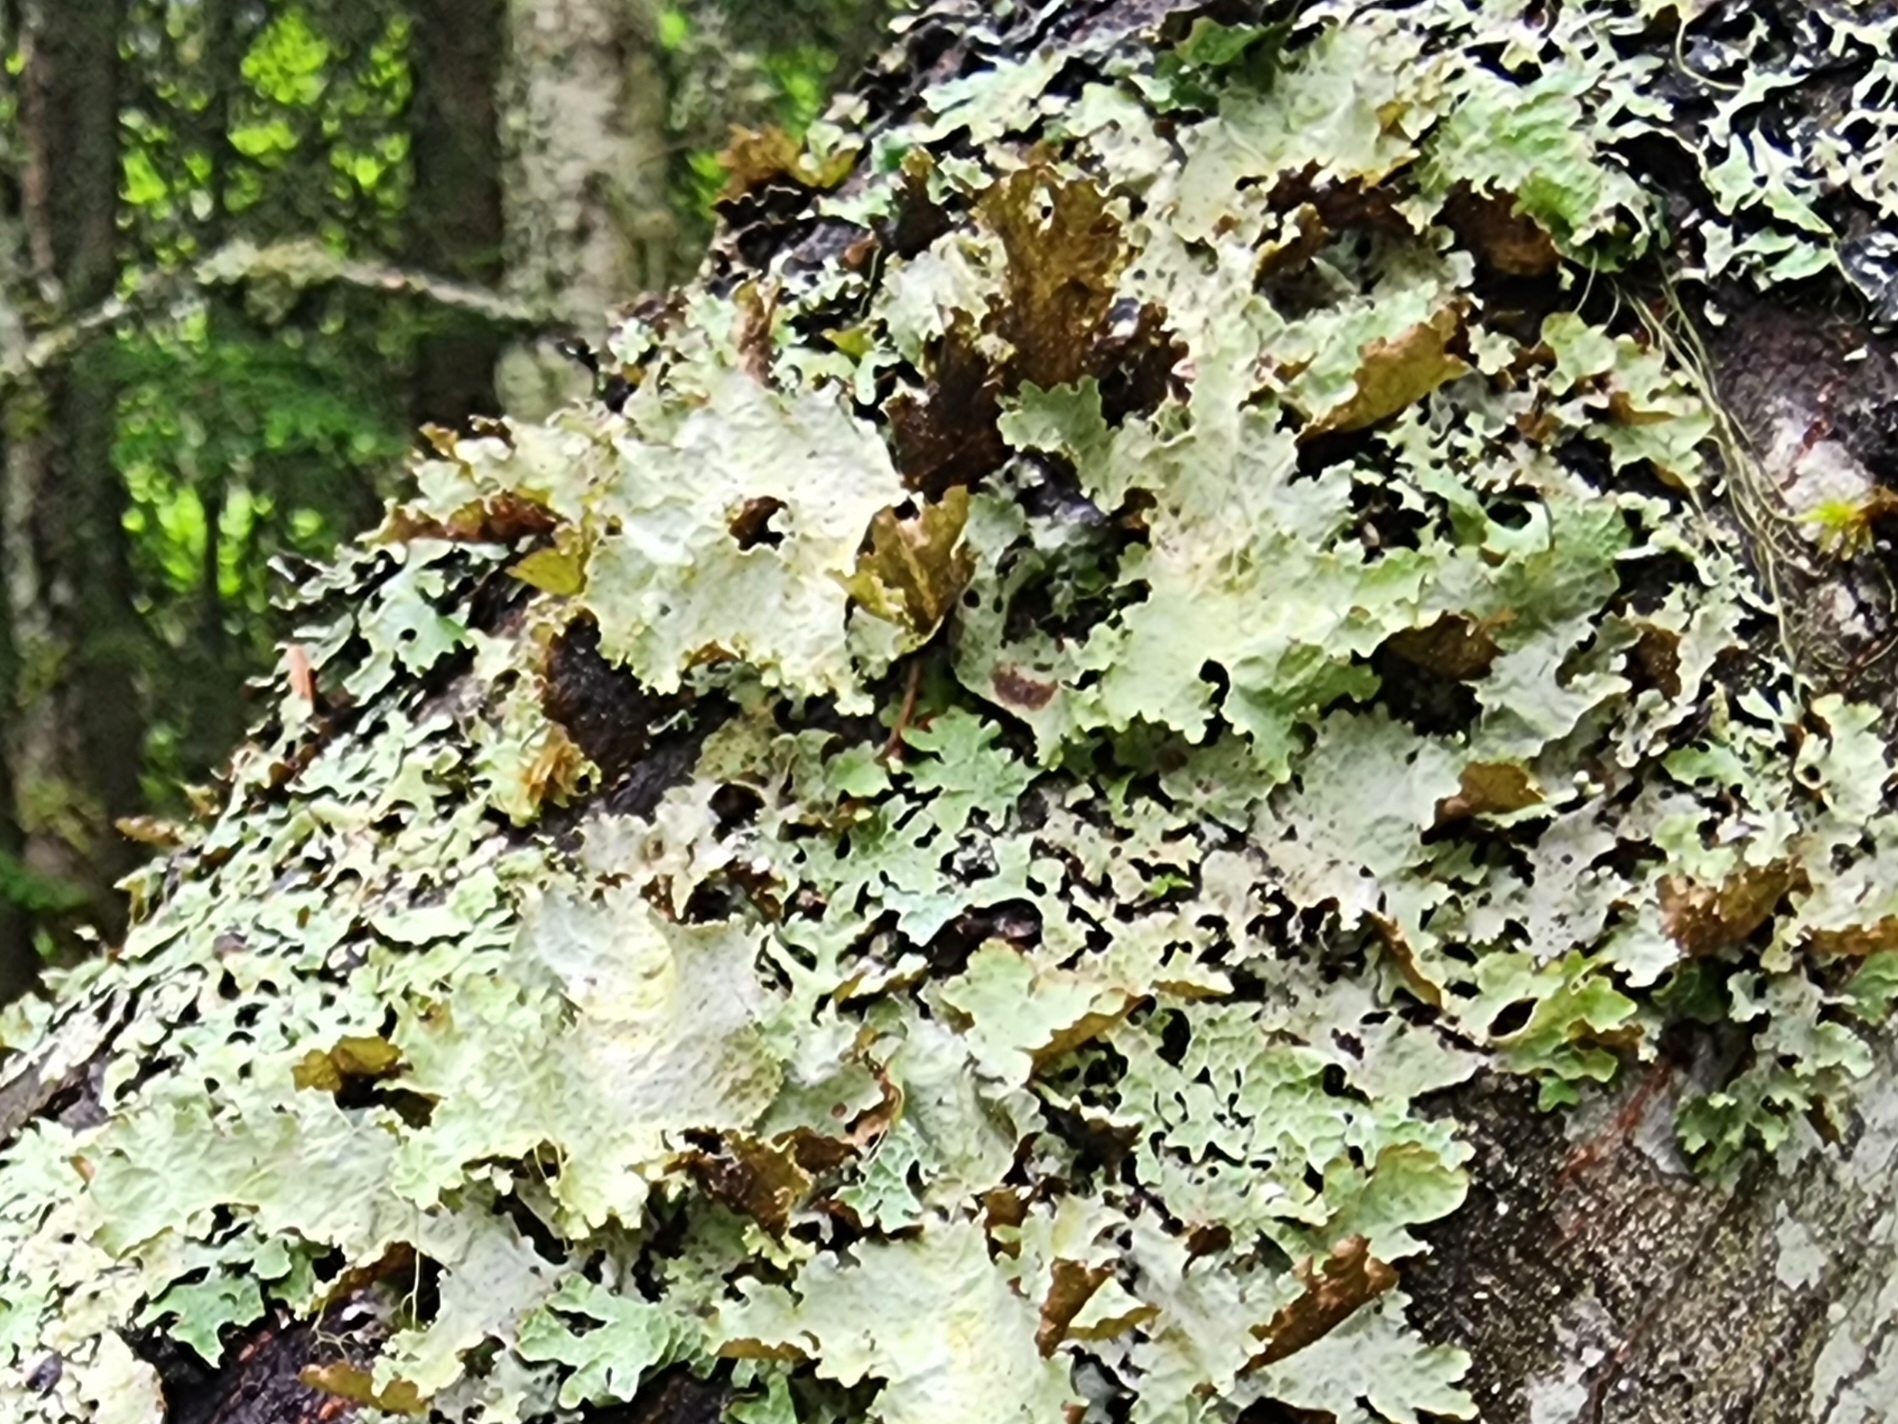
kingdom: Fungi
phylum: Ascomycota
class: Lecanoromycetes
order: Lecanorales
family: Parmeliaceae
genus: Platismatia
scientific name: Platismatia glauca
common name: Varied rag lichen
